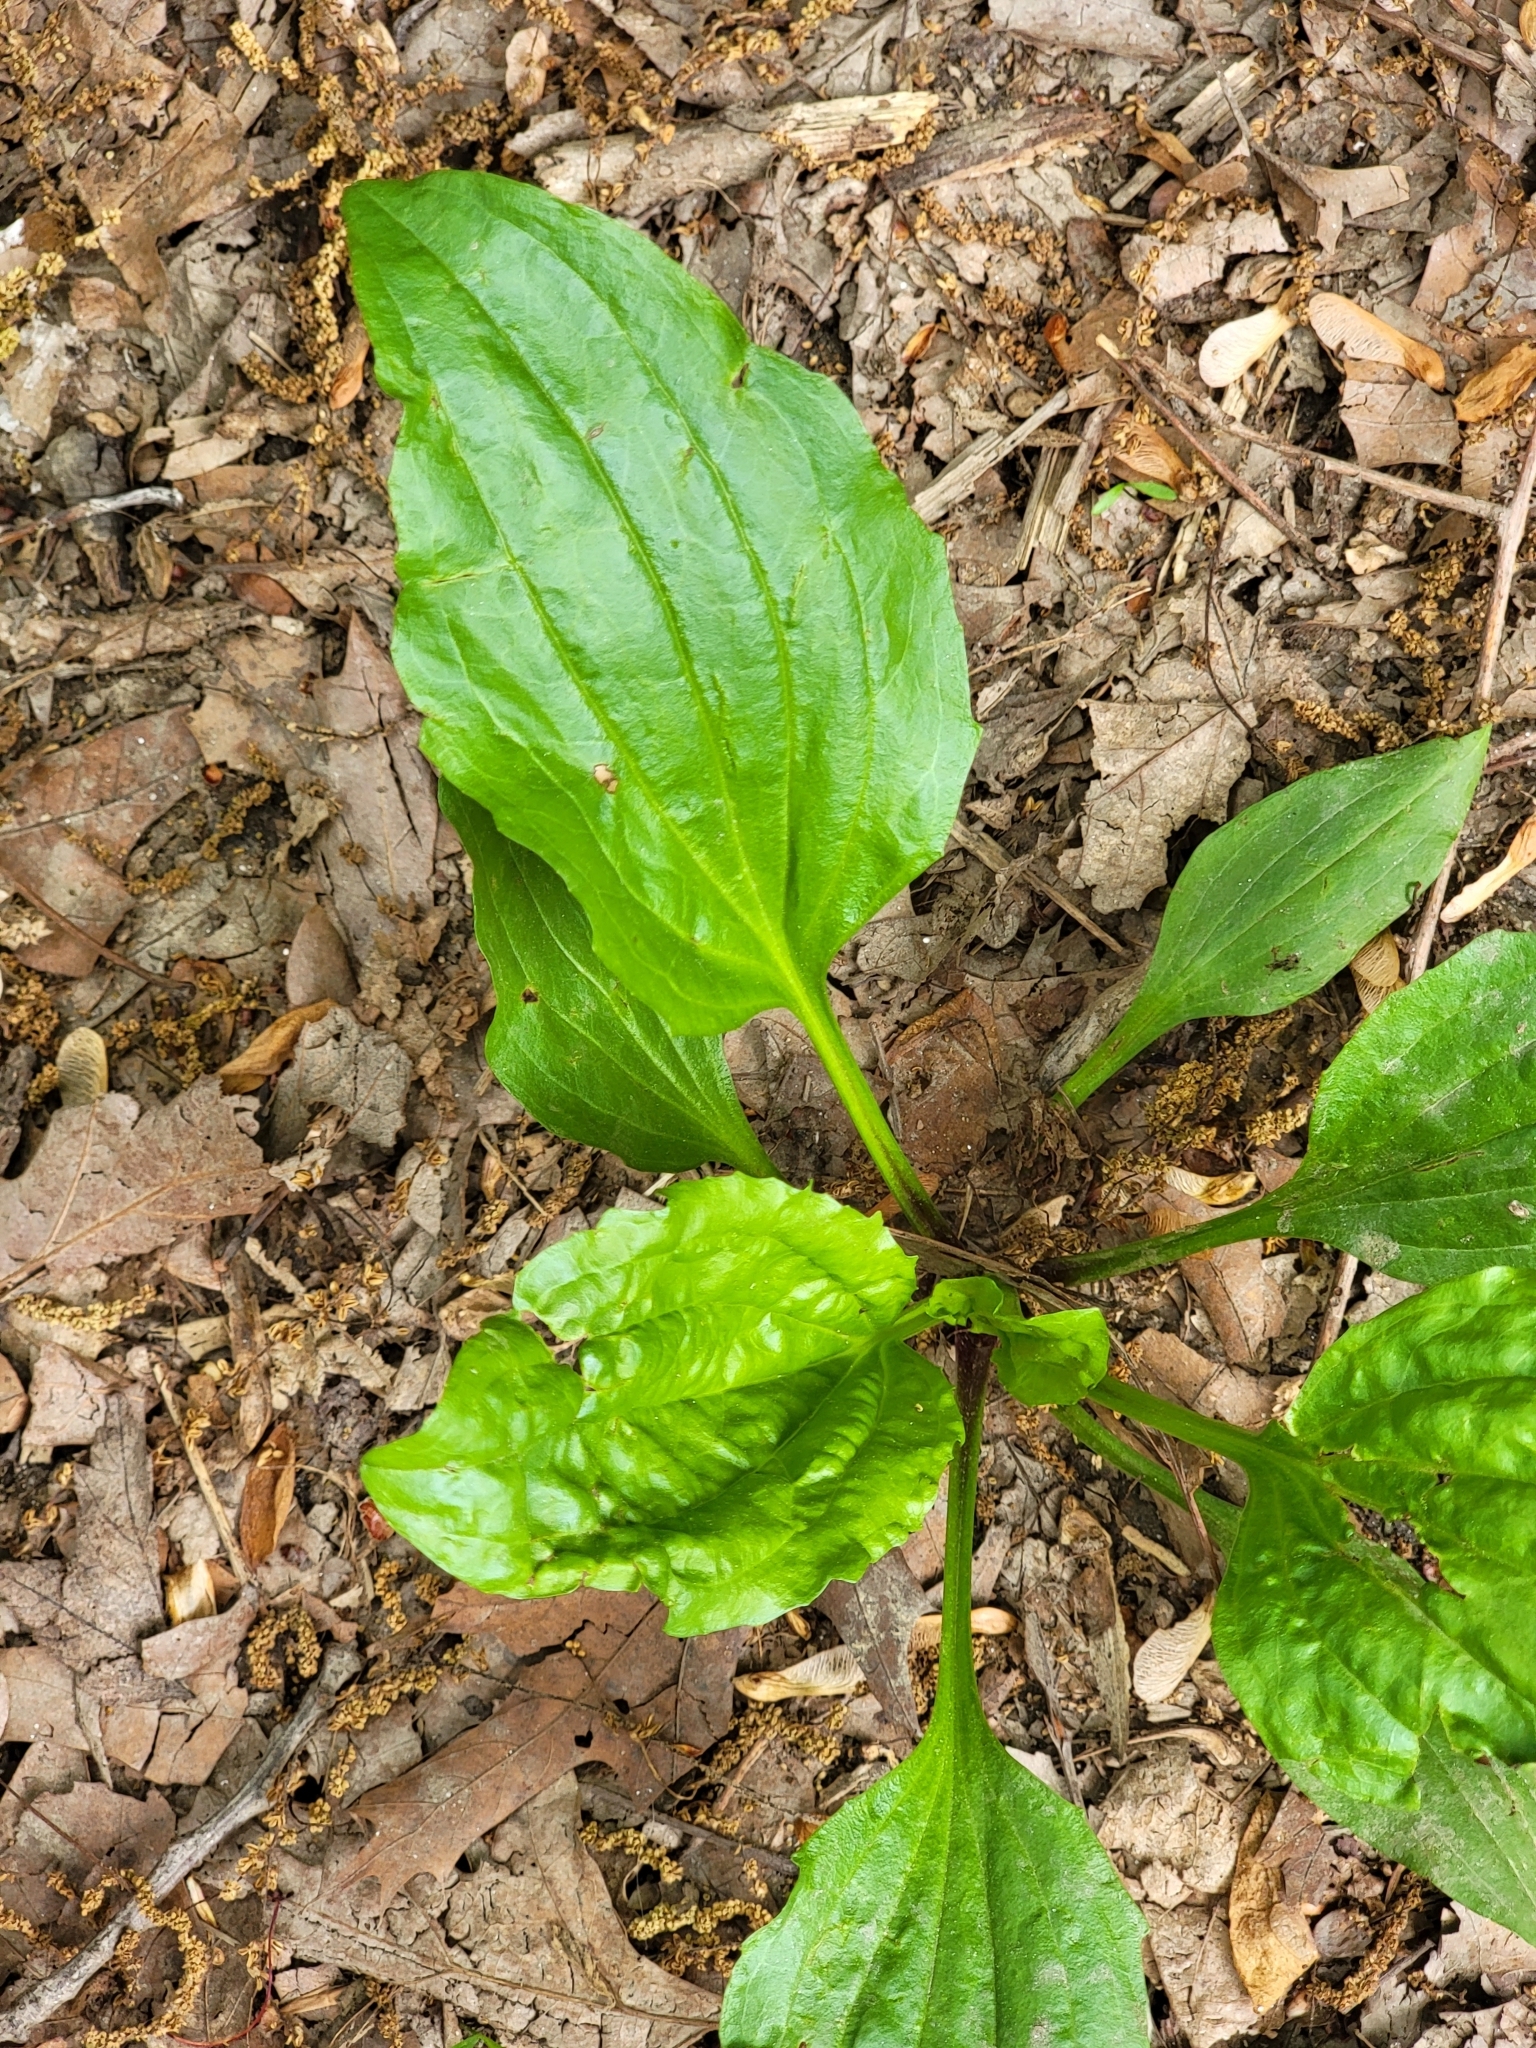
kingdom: Plantae
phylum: Tracheophyta
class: Magnoliopsida
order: Lamiales
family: Plantaginaceae
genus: Plantago
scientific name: Plantago rugelii
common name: American plantain
